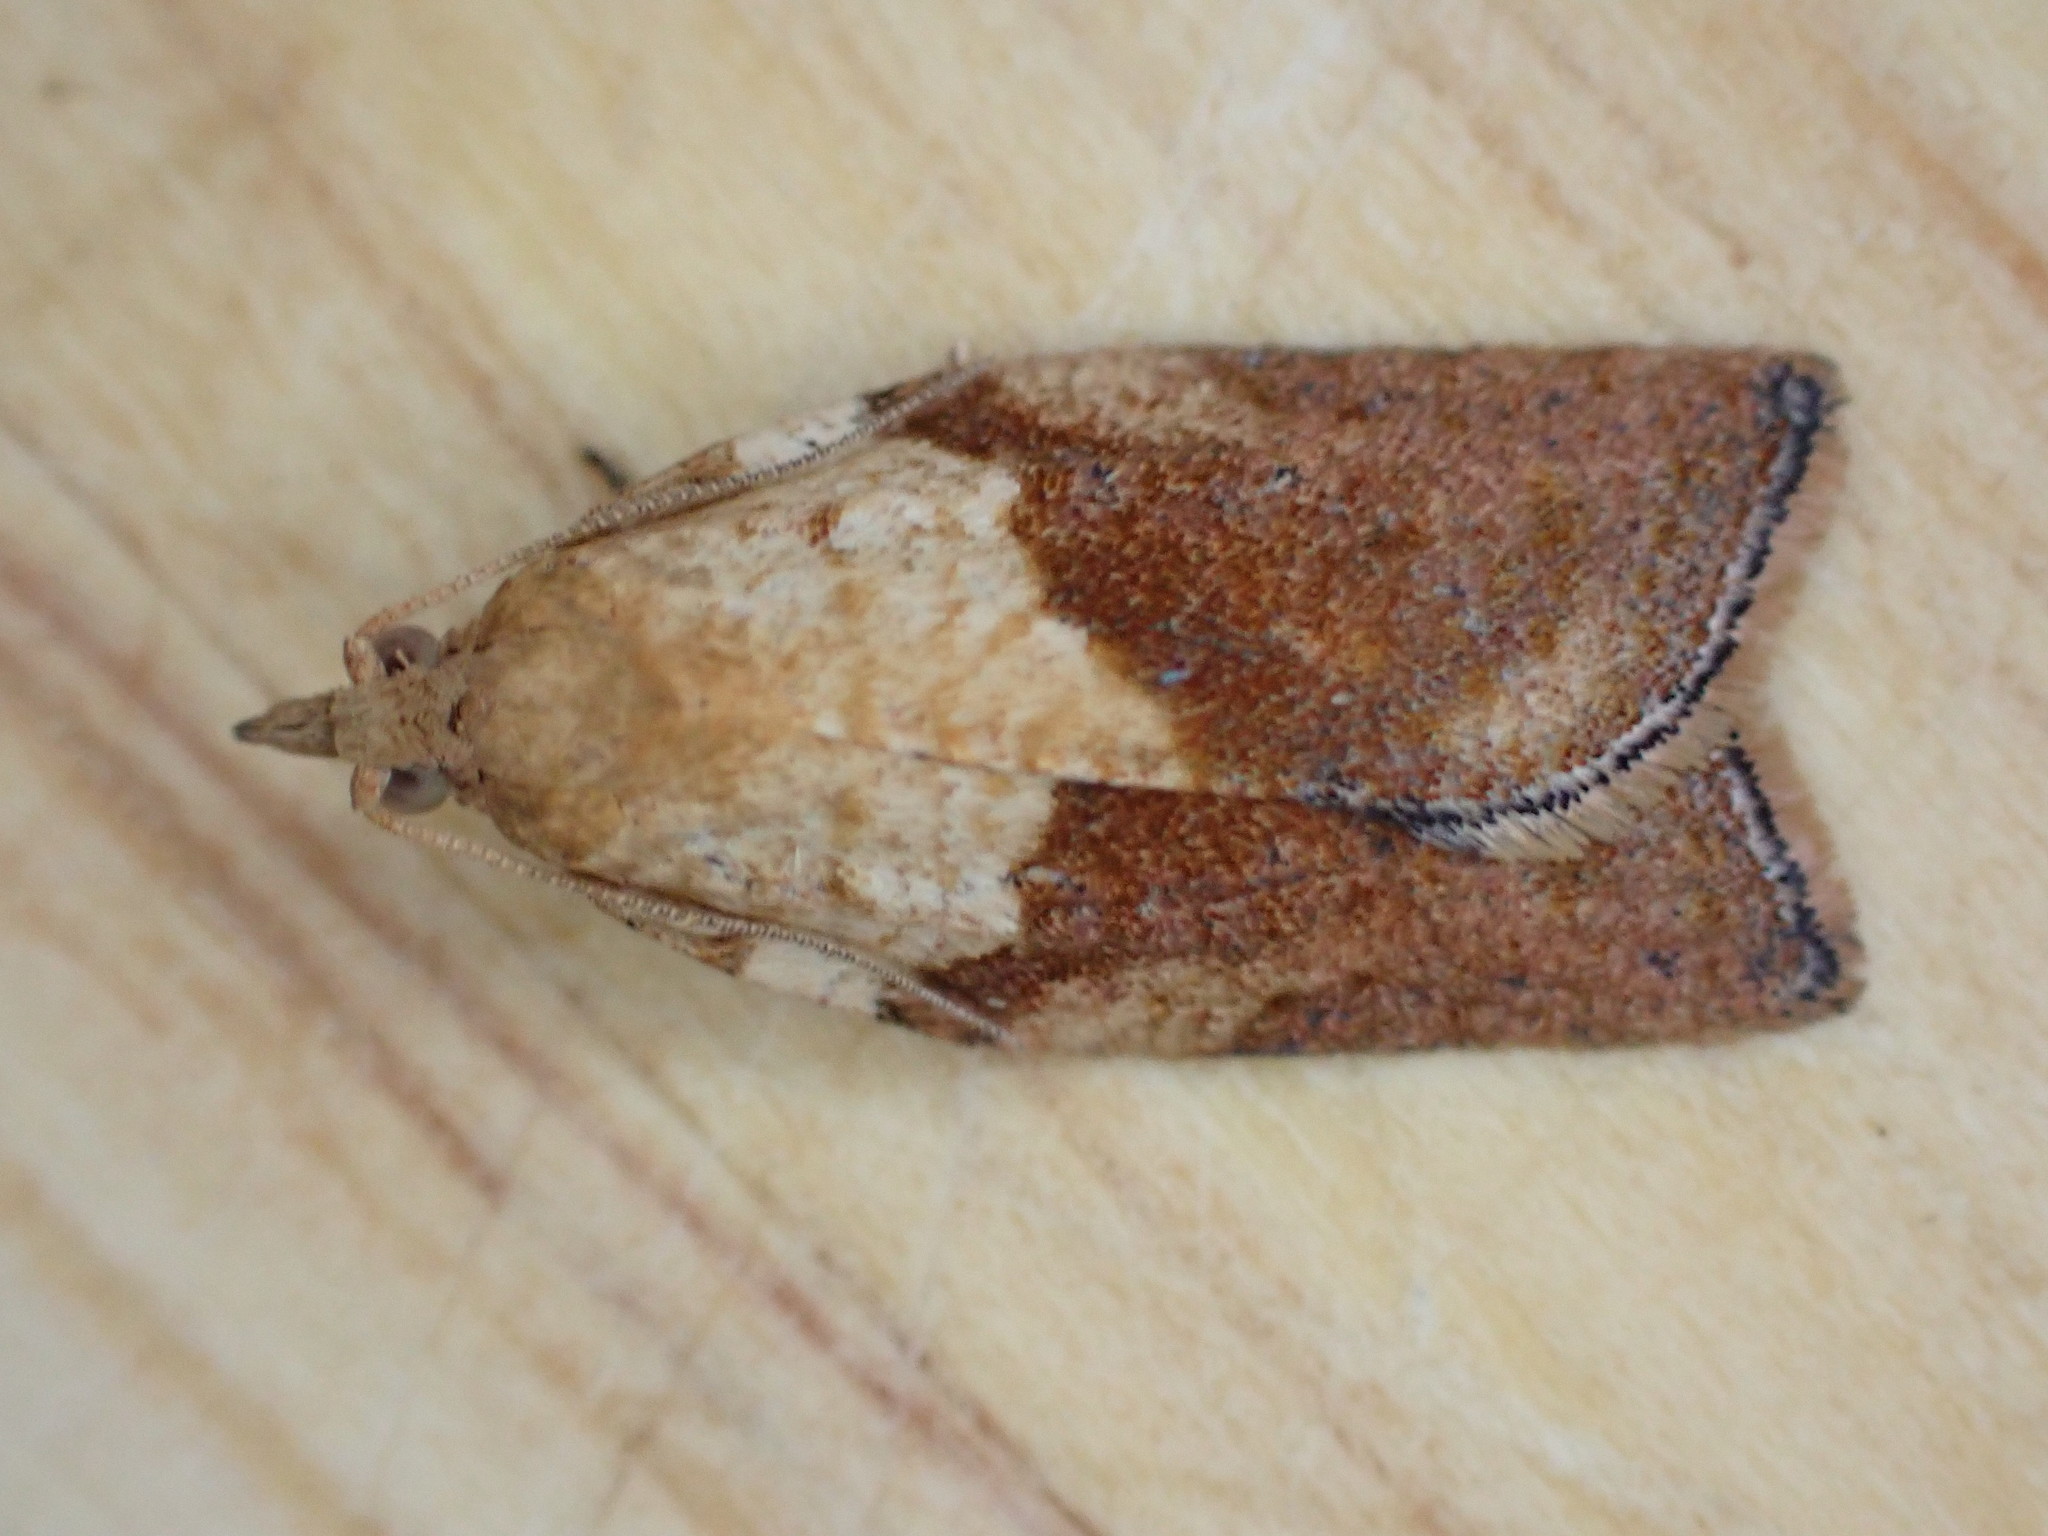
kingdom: Animalia
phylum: Arthropoda
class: Insecta
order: Lepidoptera
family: Tortricidae
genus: Epiphyas
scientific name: Epiphyas postvittana
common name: Light brown apple moth
